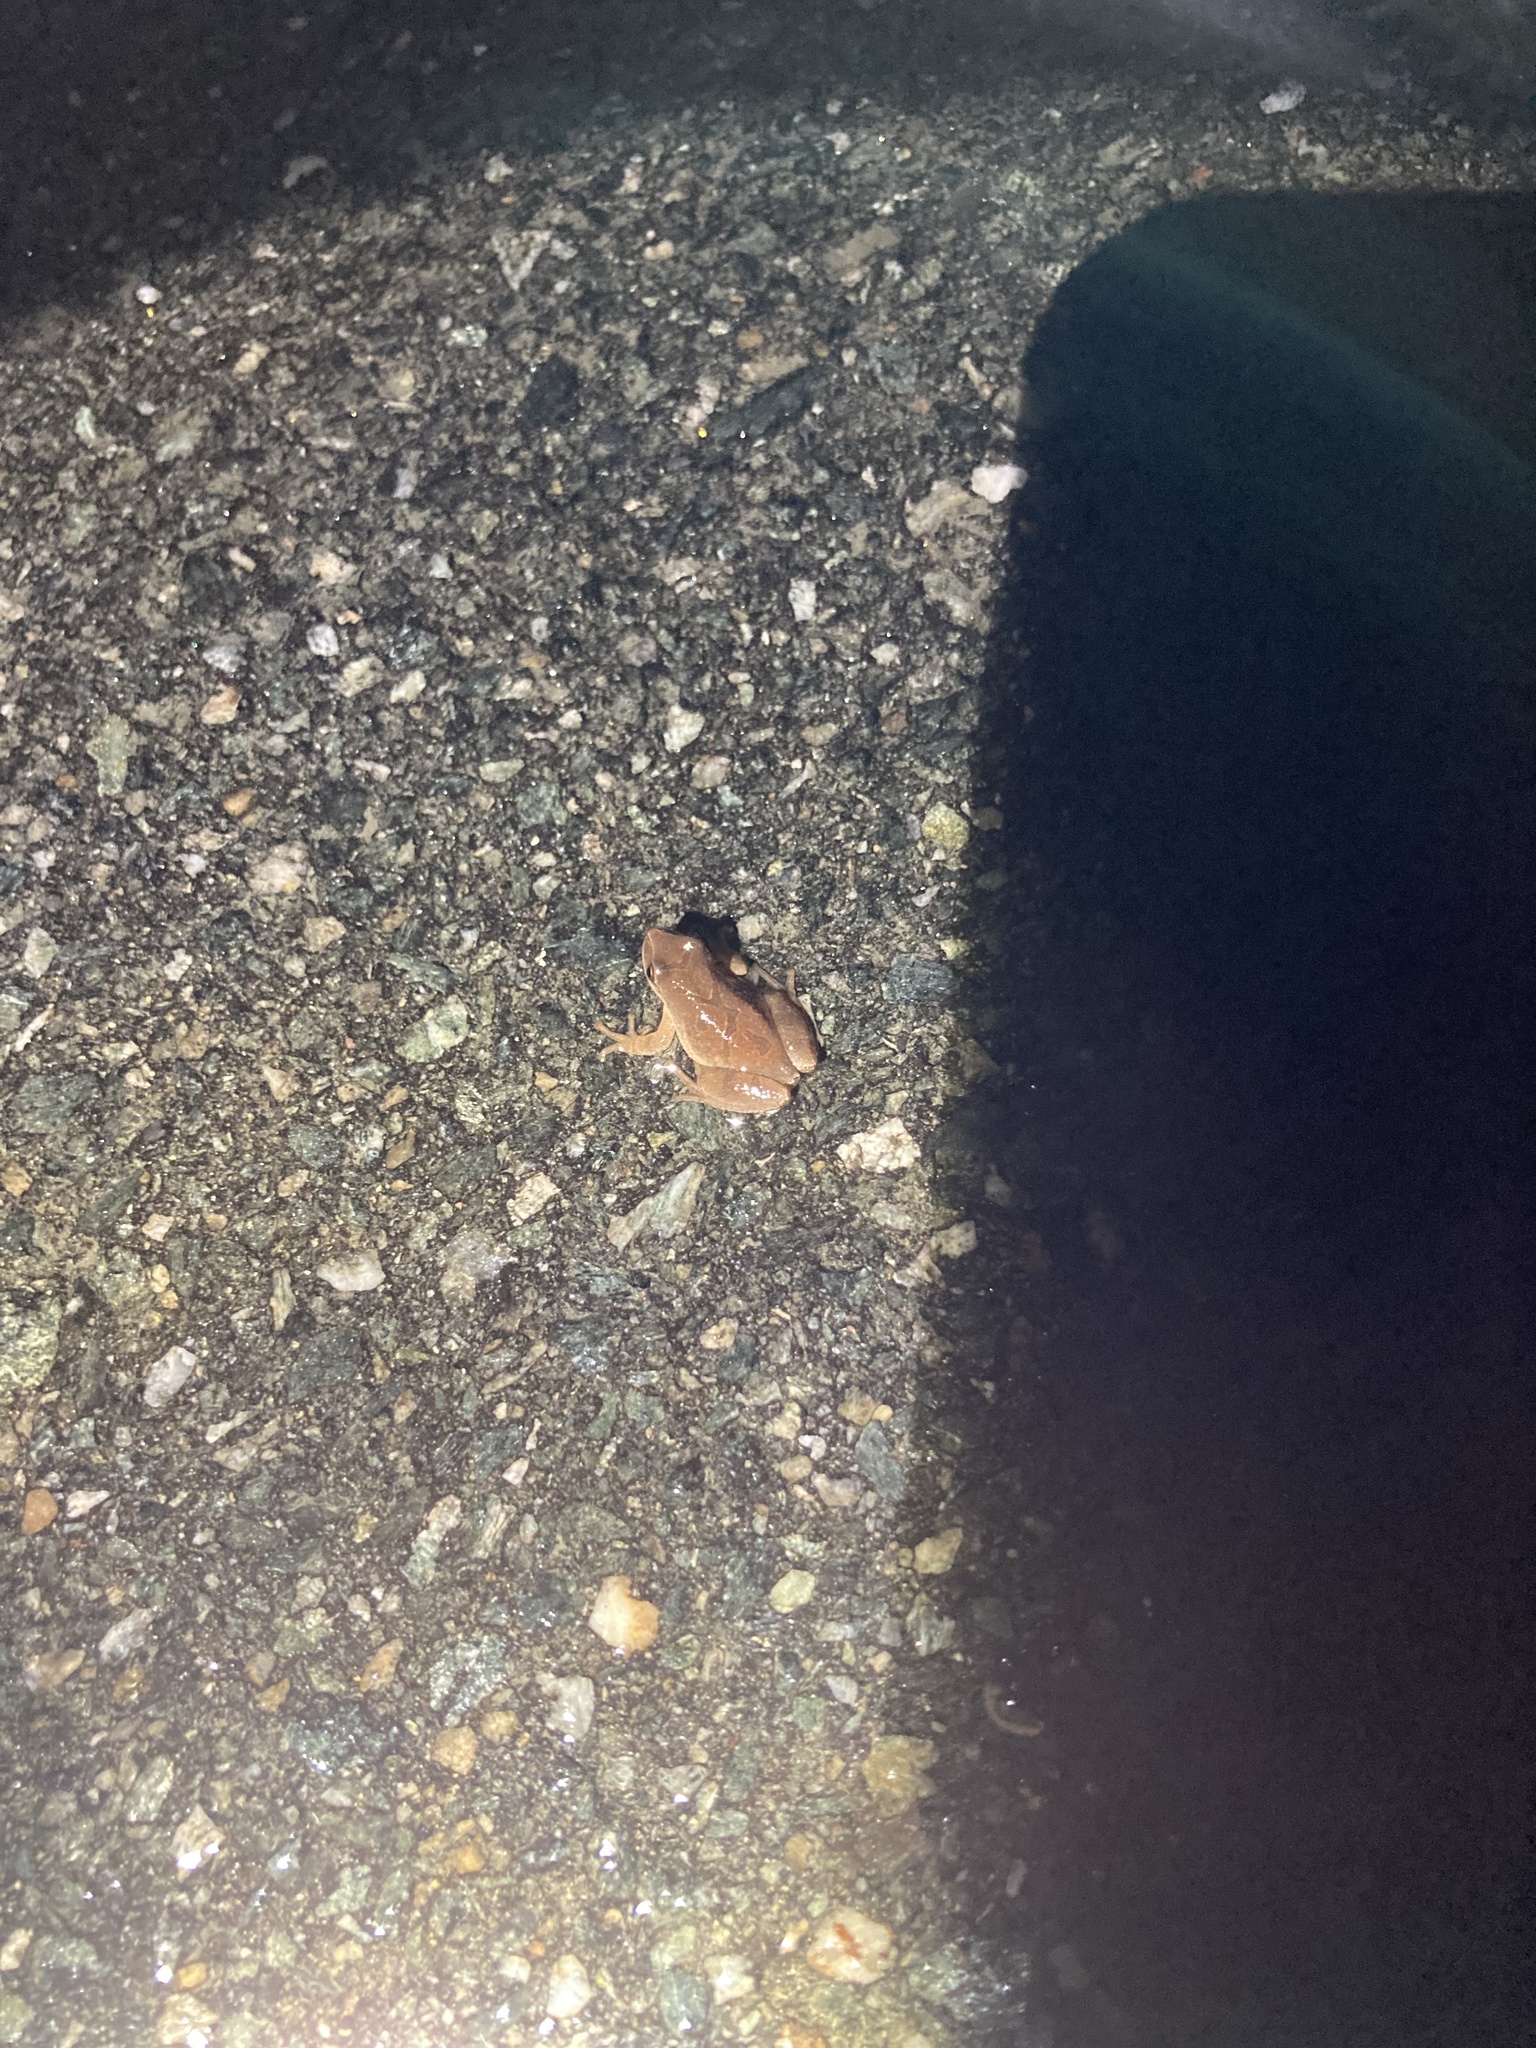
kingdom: Animalia
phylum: Chordata
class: Amphibia
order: Anura
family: Hylidae
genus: Pseudacris
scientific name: Pseudacris crucifer
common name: Spring peeper
